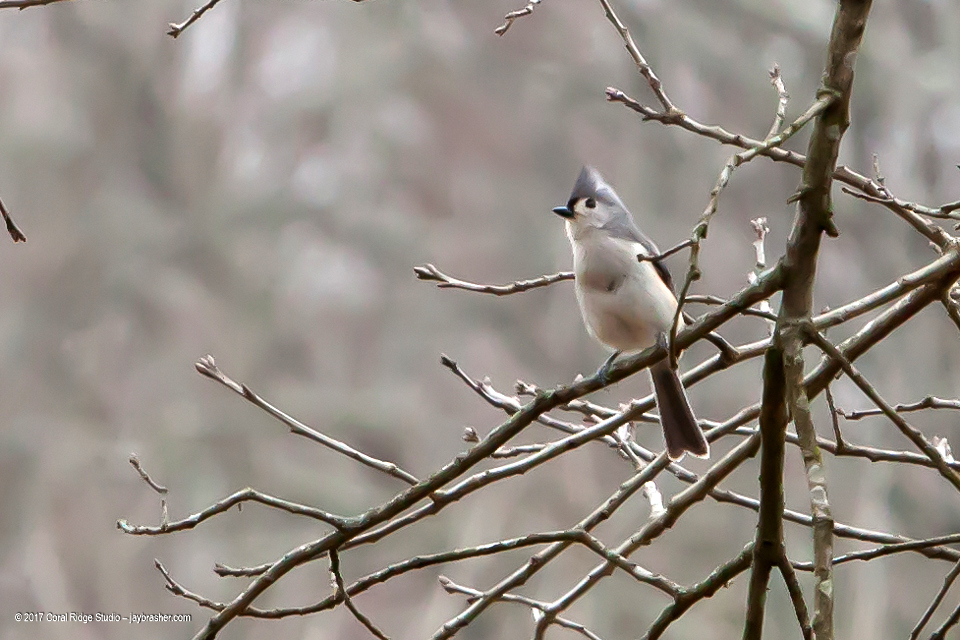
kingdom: Animalia
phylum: Chordata
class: Aves
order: Passeriformes
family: Paridae
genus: Baeolophus
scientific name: Baeolophus bicolor
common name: Tufted titmouse
